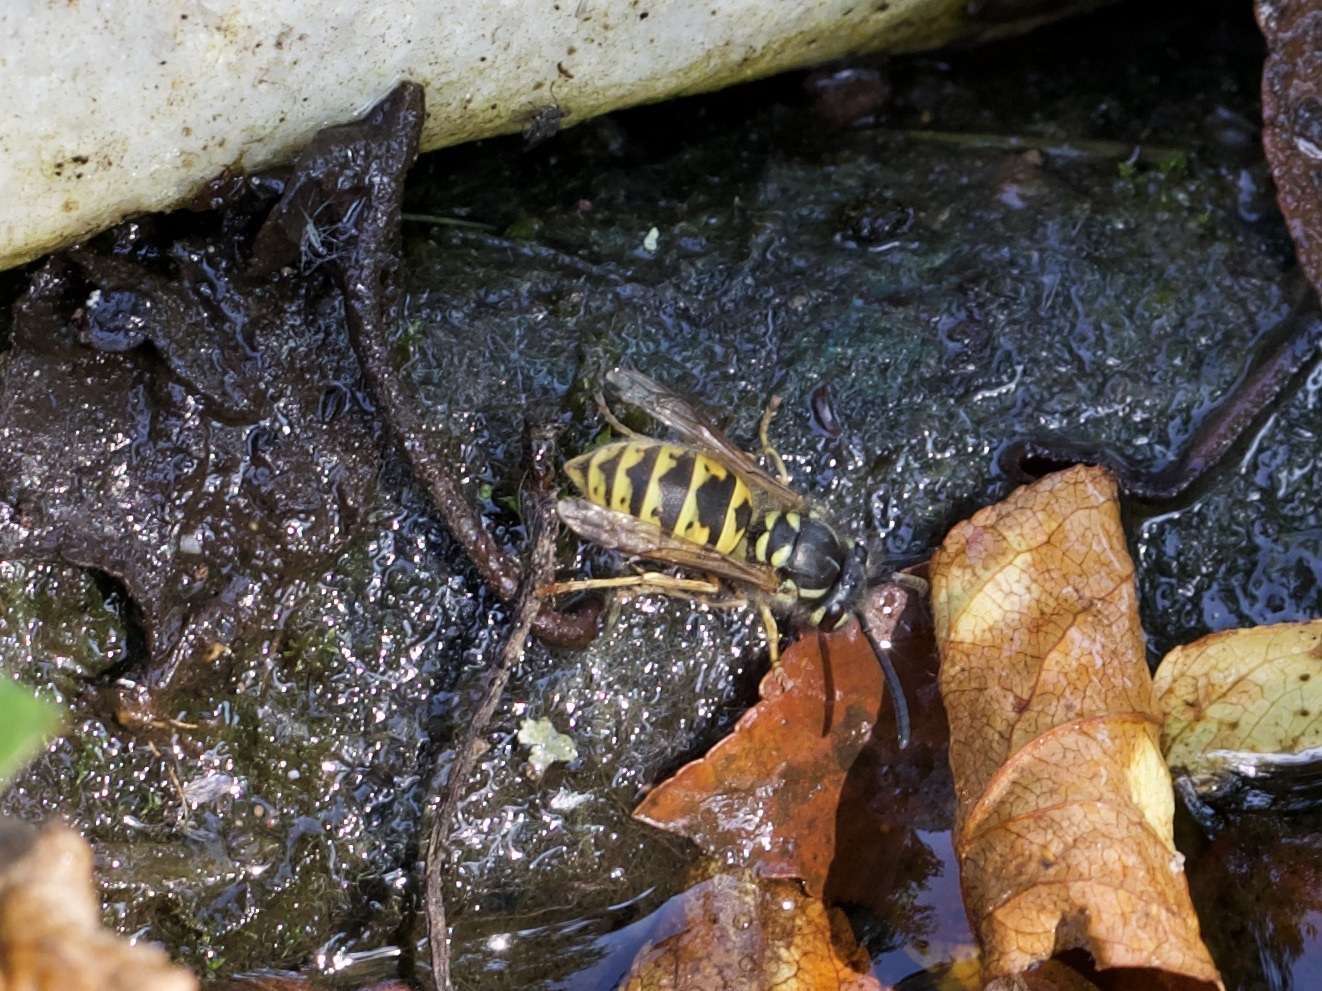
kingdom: Animalia
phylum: Arthropoda
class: Insecta
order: Hymenoptera
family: Vespidae
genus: Vespula
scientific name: Vespula vulgaris
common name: Common wasp
